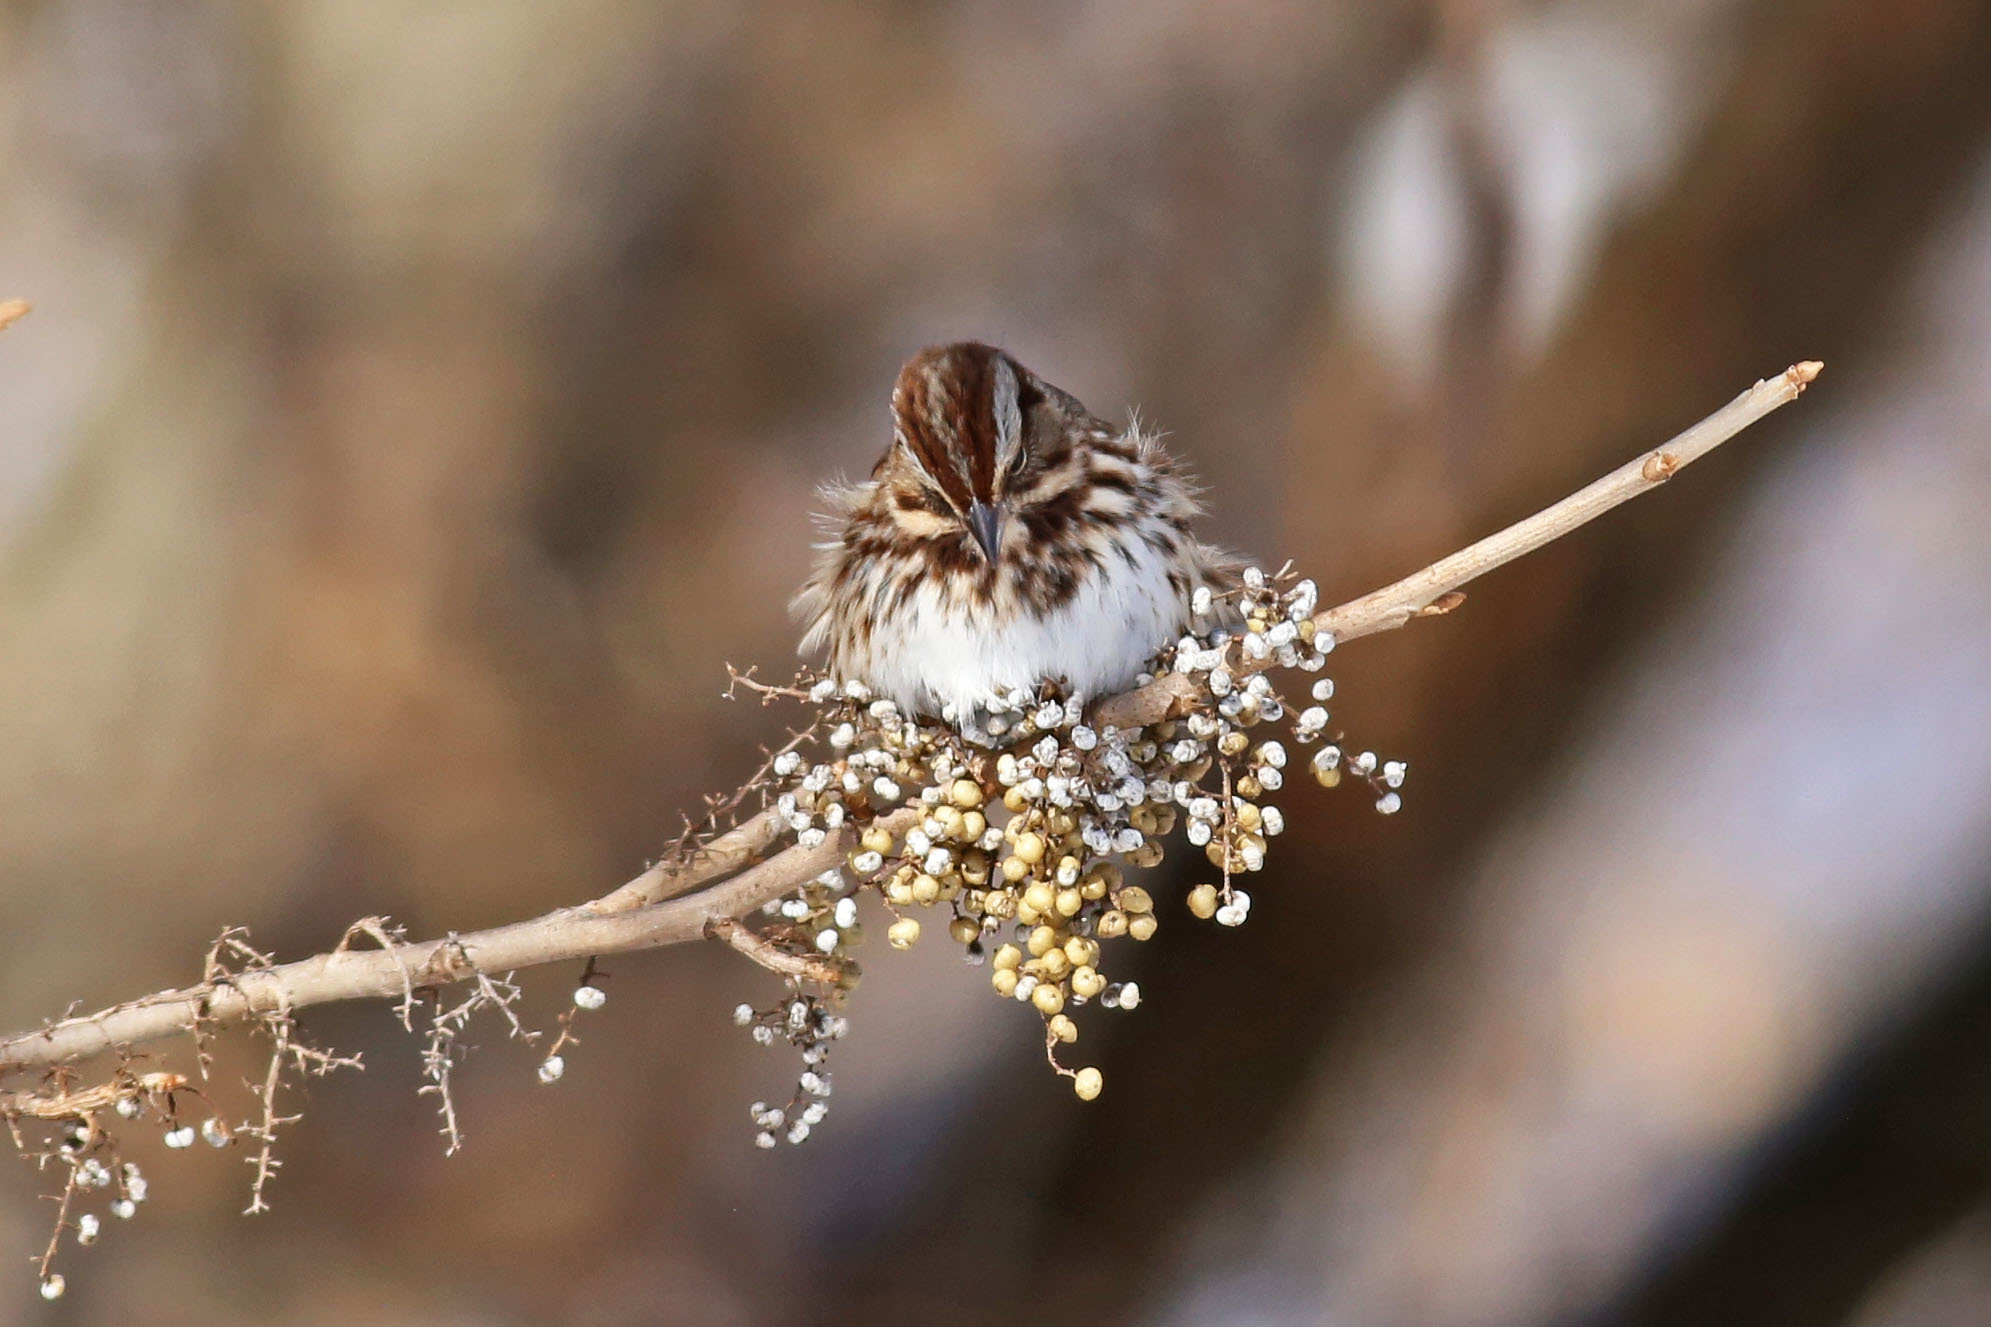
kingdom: Animalia
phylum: Chordata
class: Aves
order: Passeriformes
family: Passerellidae
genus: Melospiza
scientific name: Melospiza melodia
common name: Song sparrow
